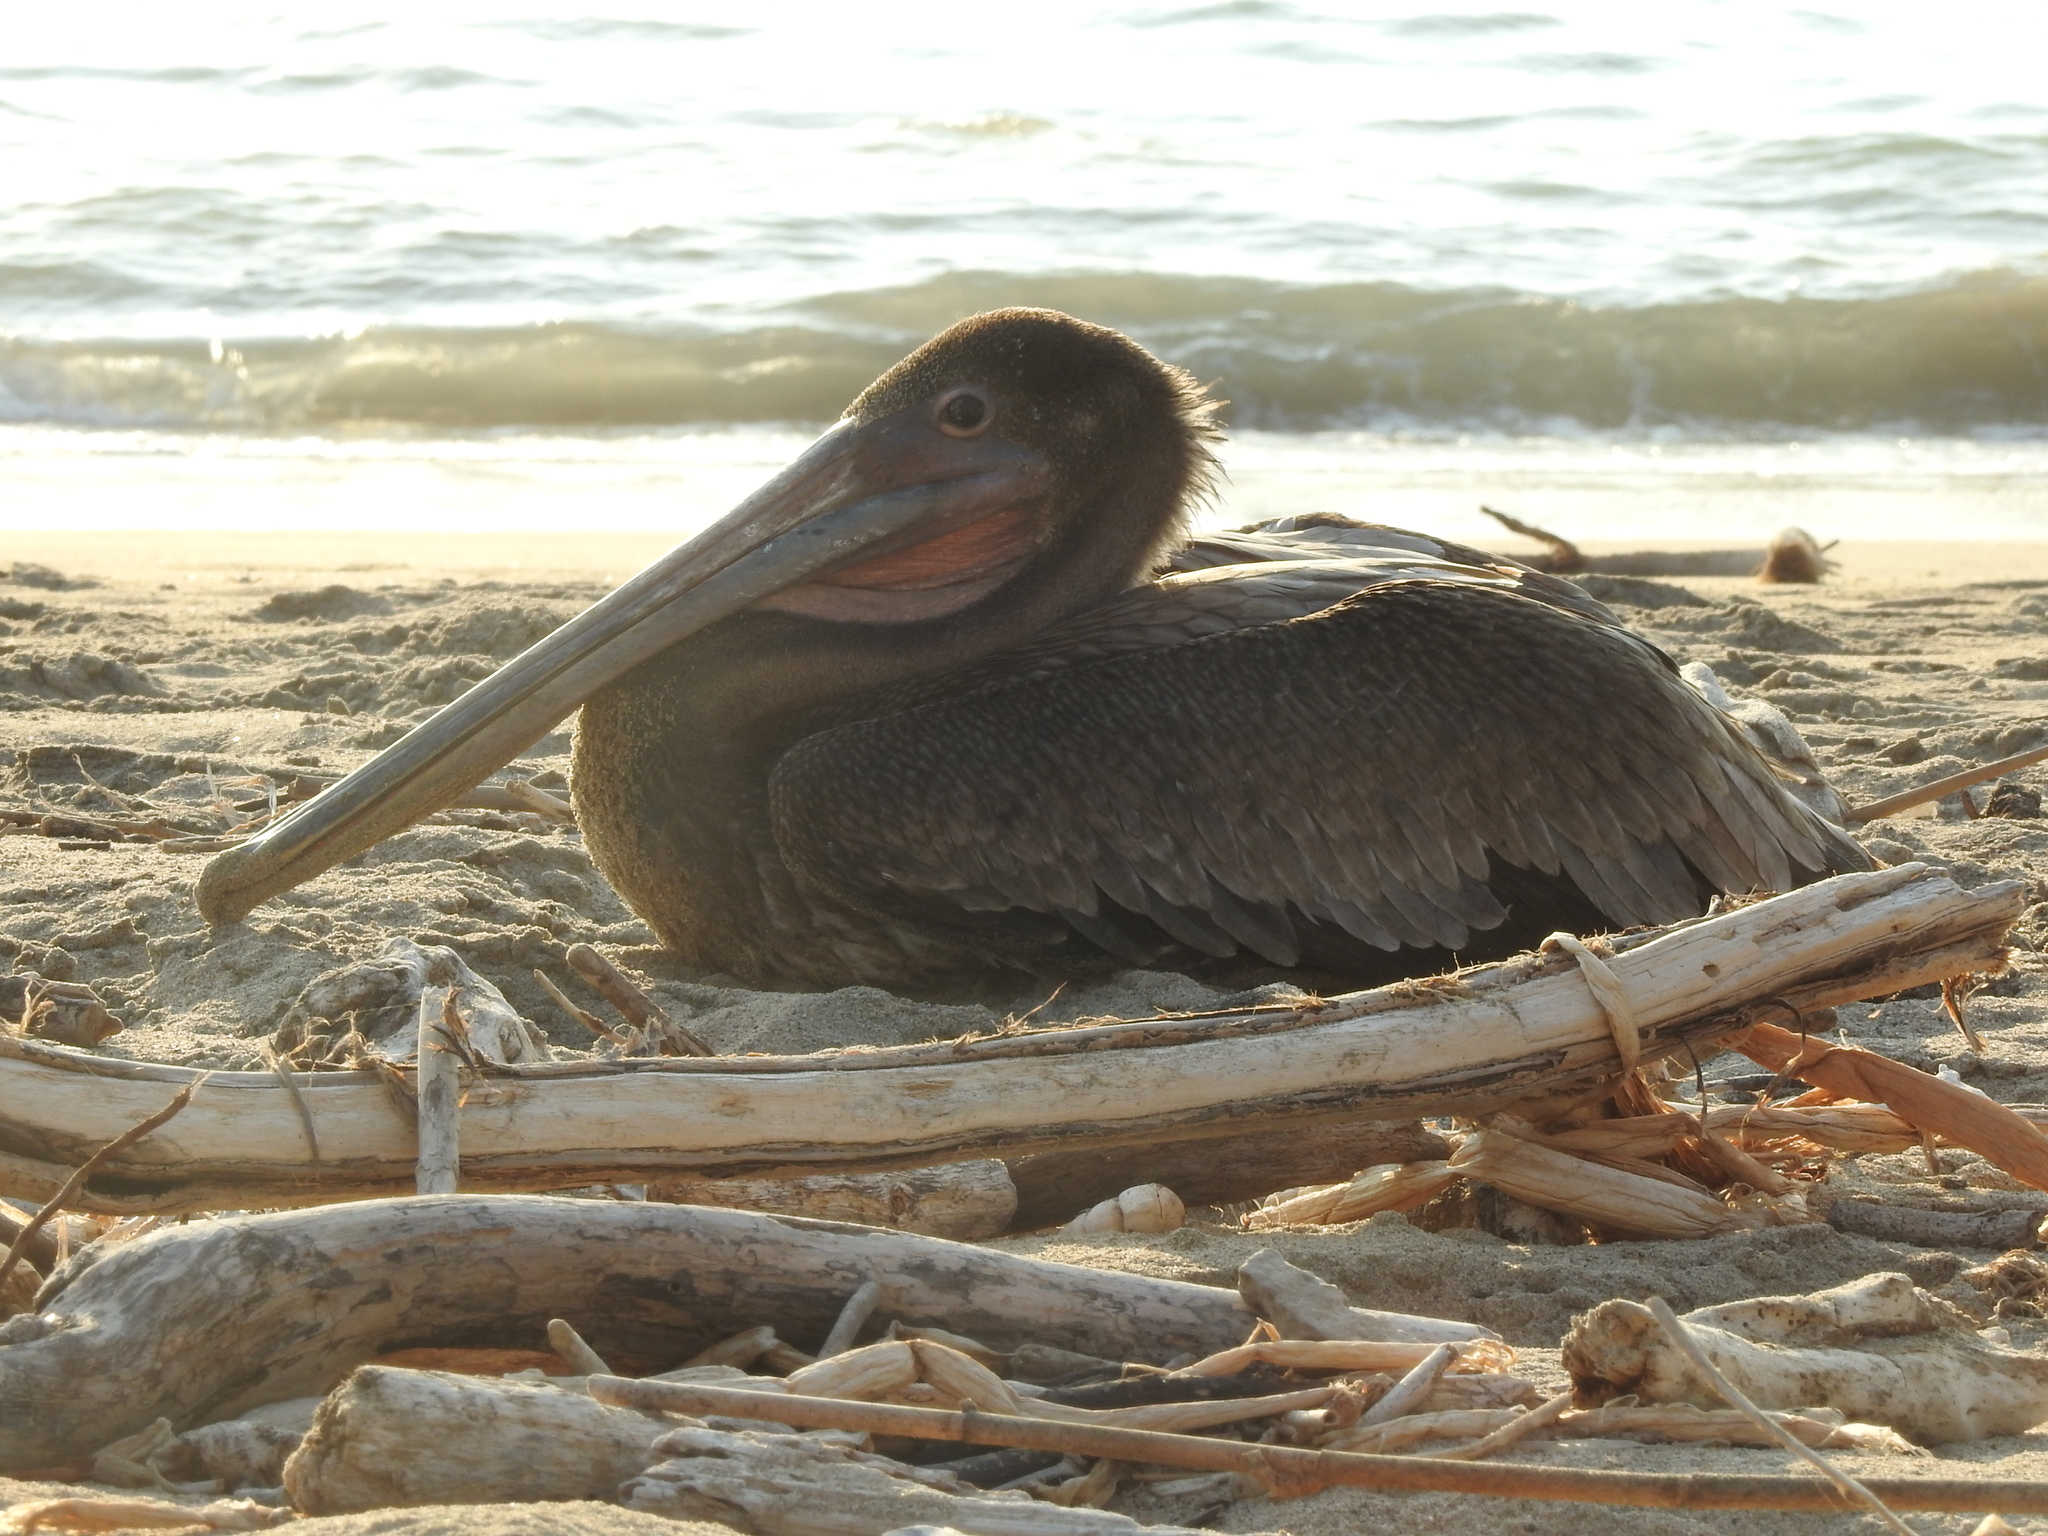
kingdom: Animalia
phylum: Chordata
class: Aves
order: Pelecaniformes
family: Pelecanidae
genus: Pelecanus
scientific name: Pelecanus occidentalis
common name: Brown pelican
